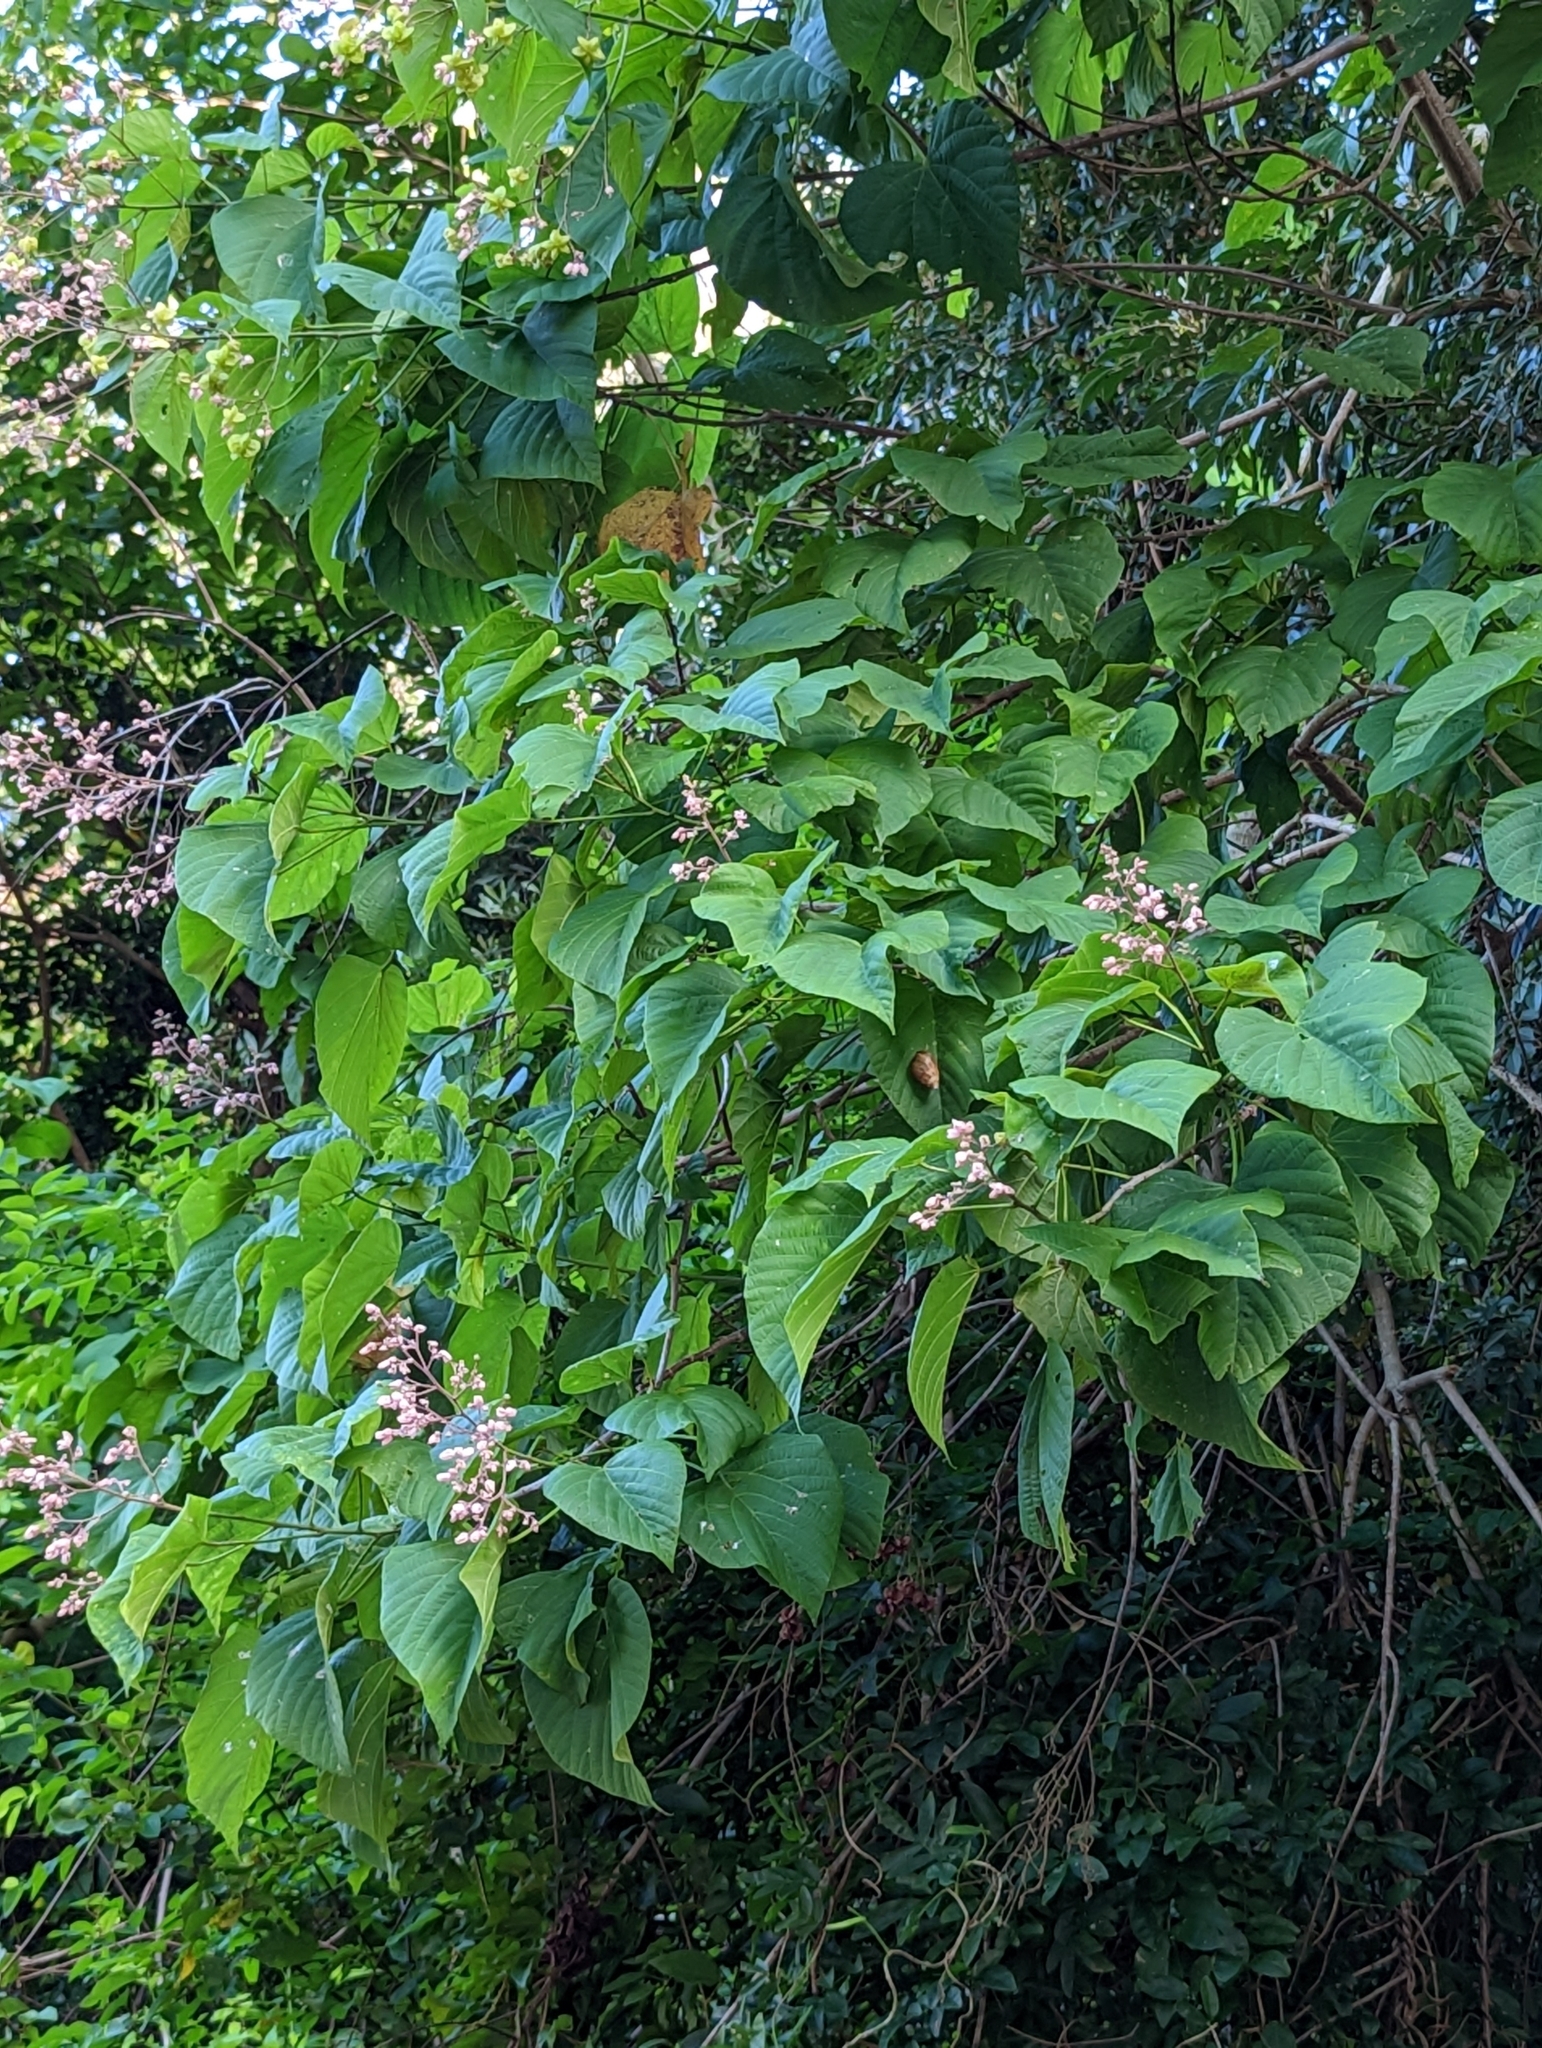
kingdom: Plantae
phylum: Tracheophyta
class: Magnoliopsida
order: Malvales
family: Malvaceae
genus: Kleinhovia
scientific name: Kleinhovia hospita
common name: Guest-tree
